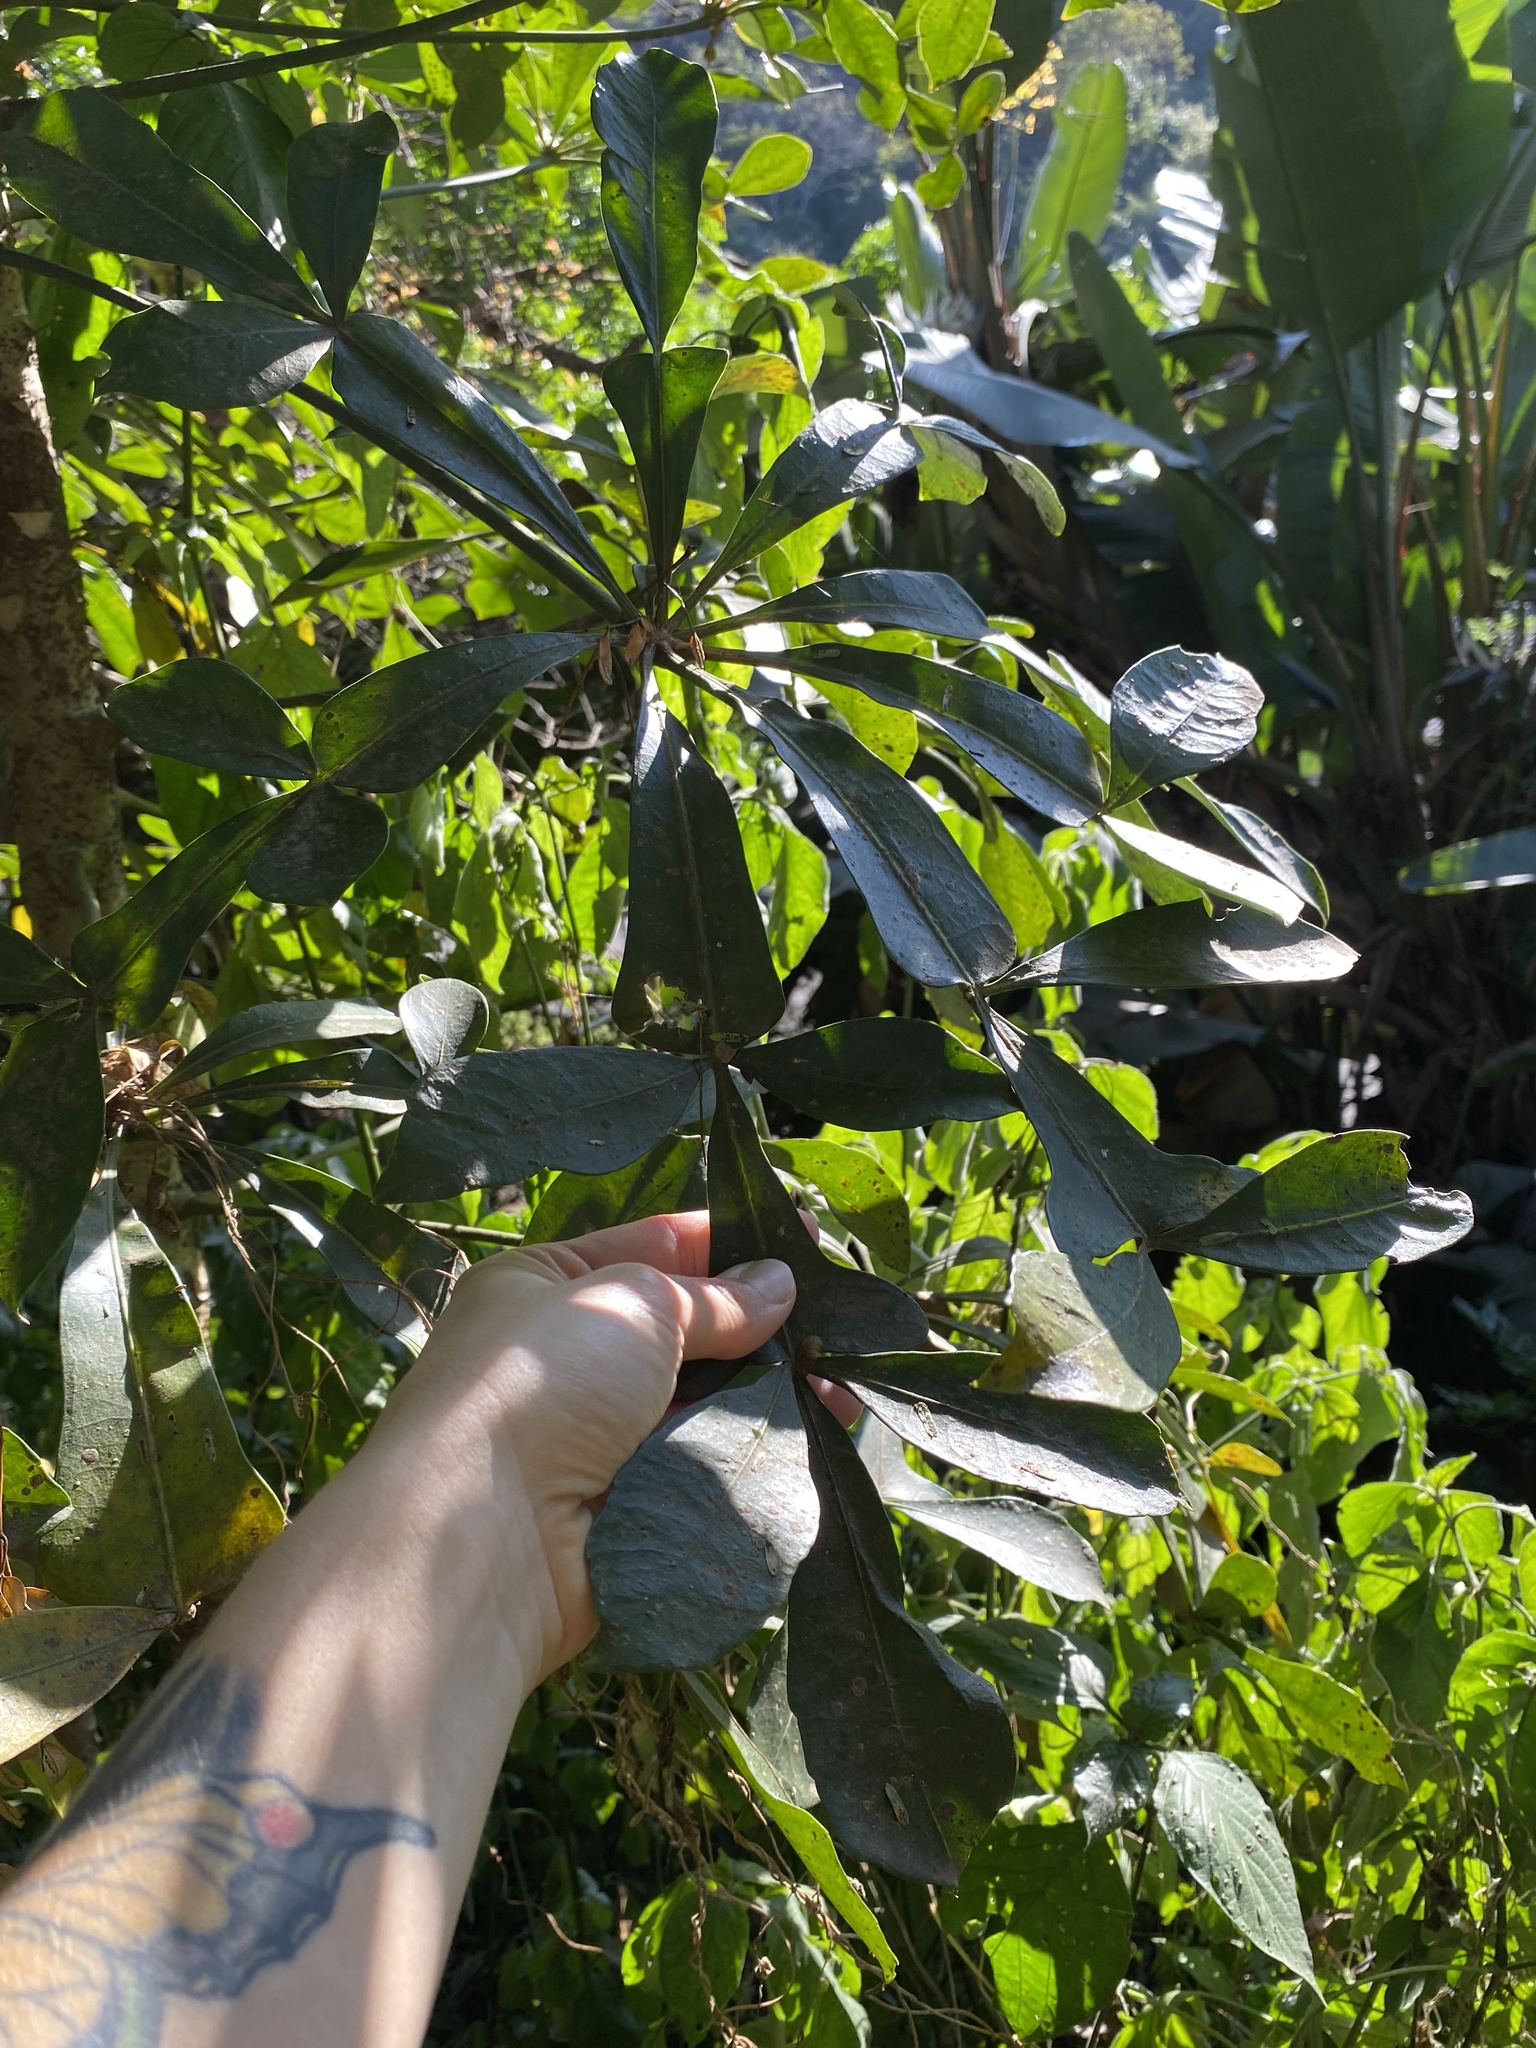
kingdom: Plantae
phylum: Tracheophyta
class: Magnoliopsida
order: Apiales
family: Araliaceae
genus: Cussonia
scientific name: Cussonia spicata
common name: Common cabbagetree
